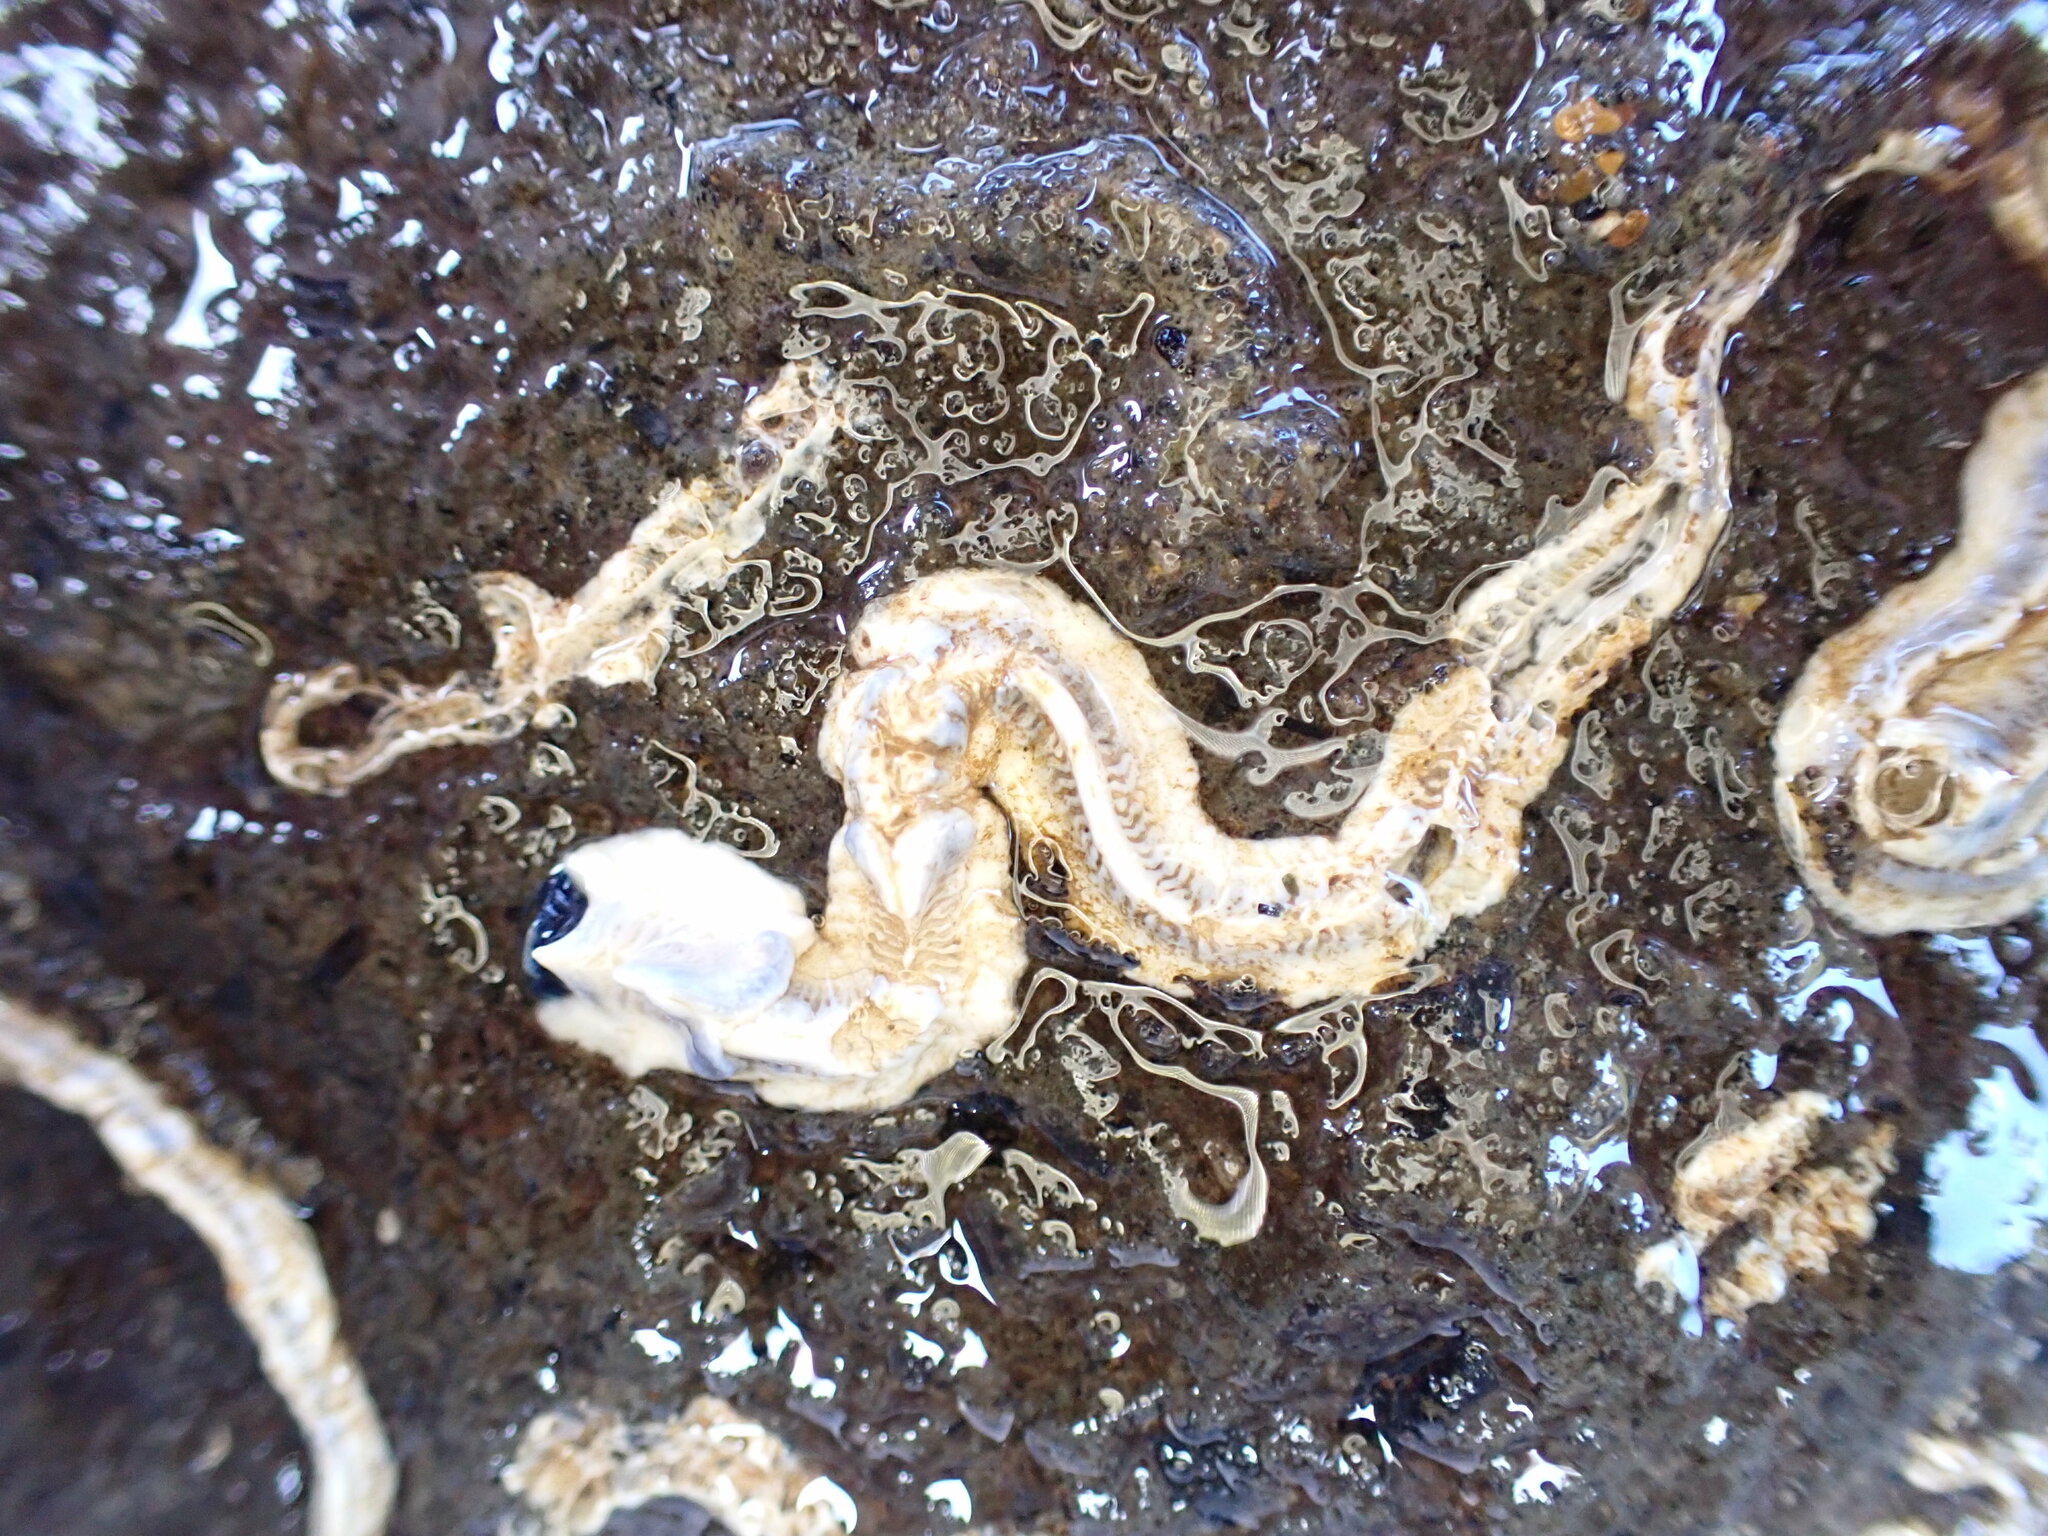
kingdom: Animalia
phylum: Annelida
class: Polychaeta
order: Sabellida
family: Serpulidae
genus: Spirobranchus
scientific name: Spirobranchus cariniferus
